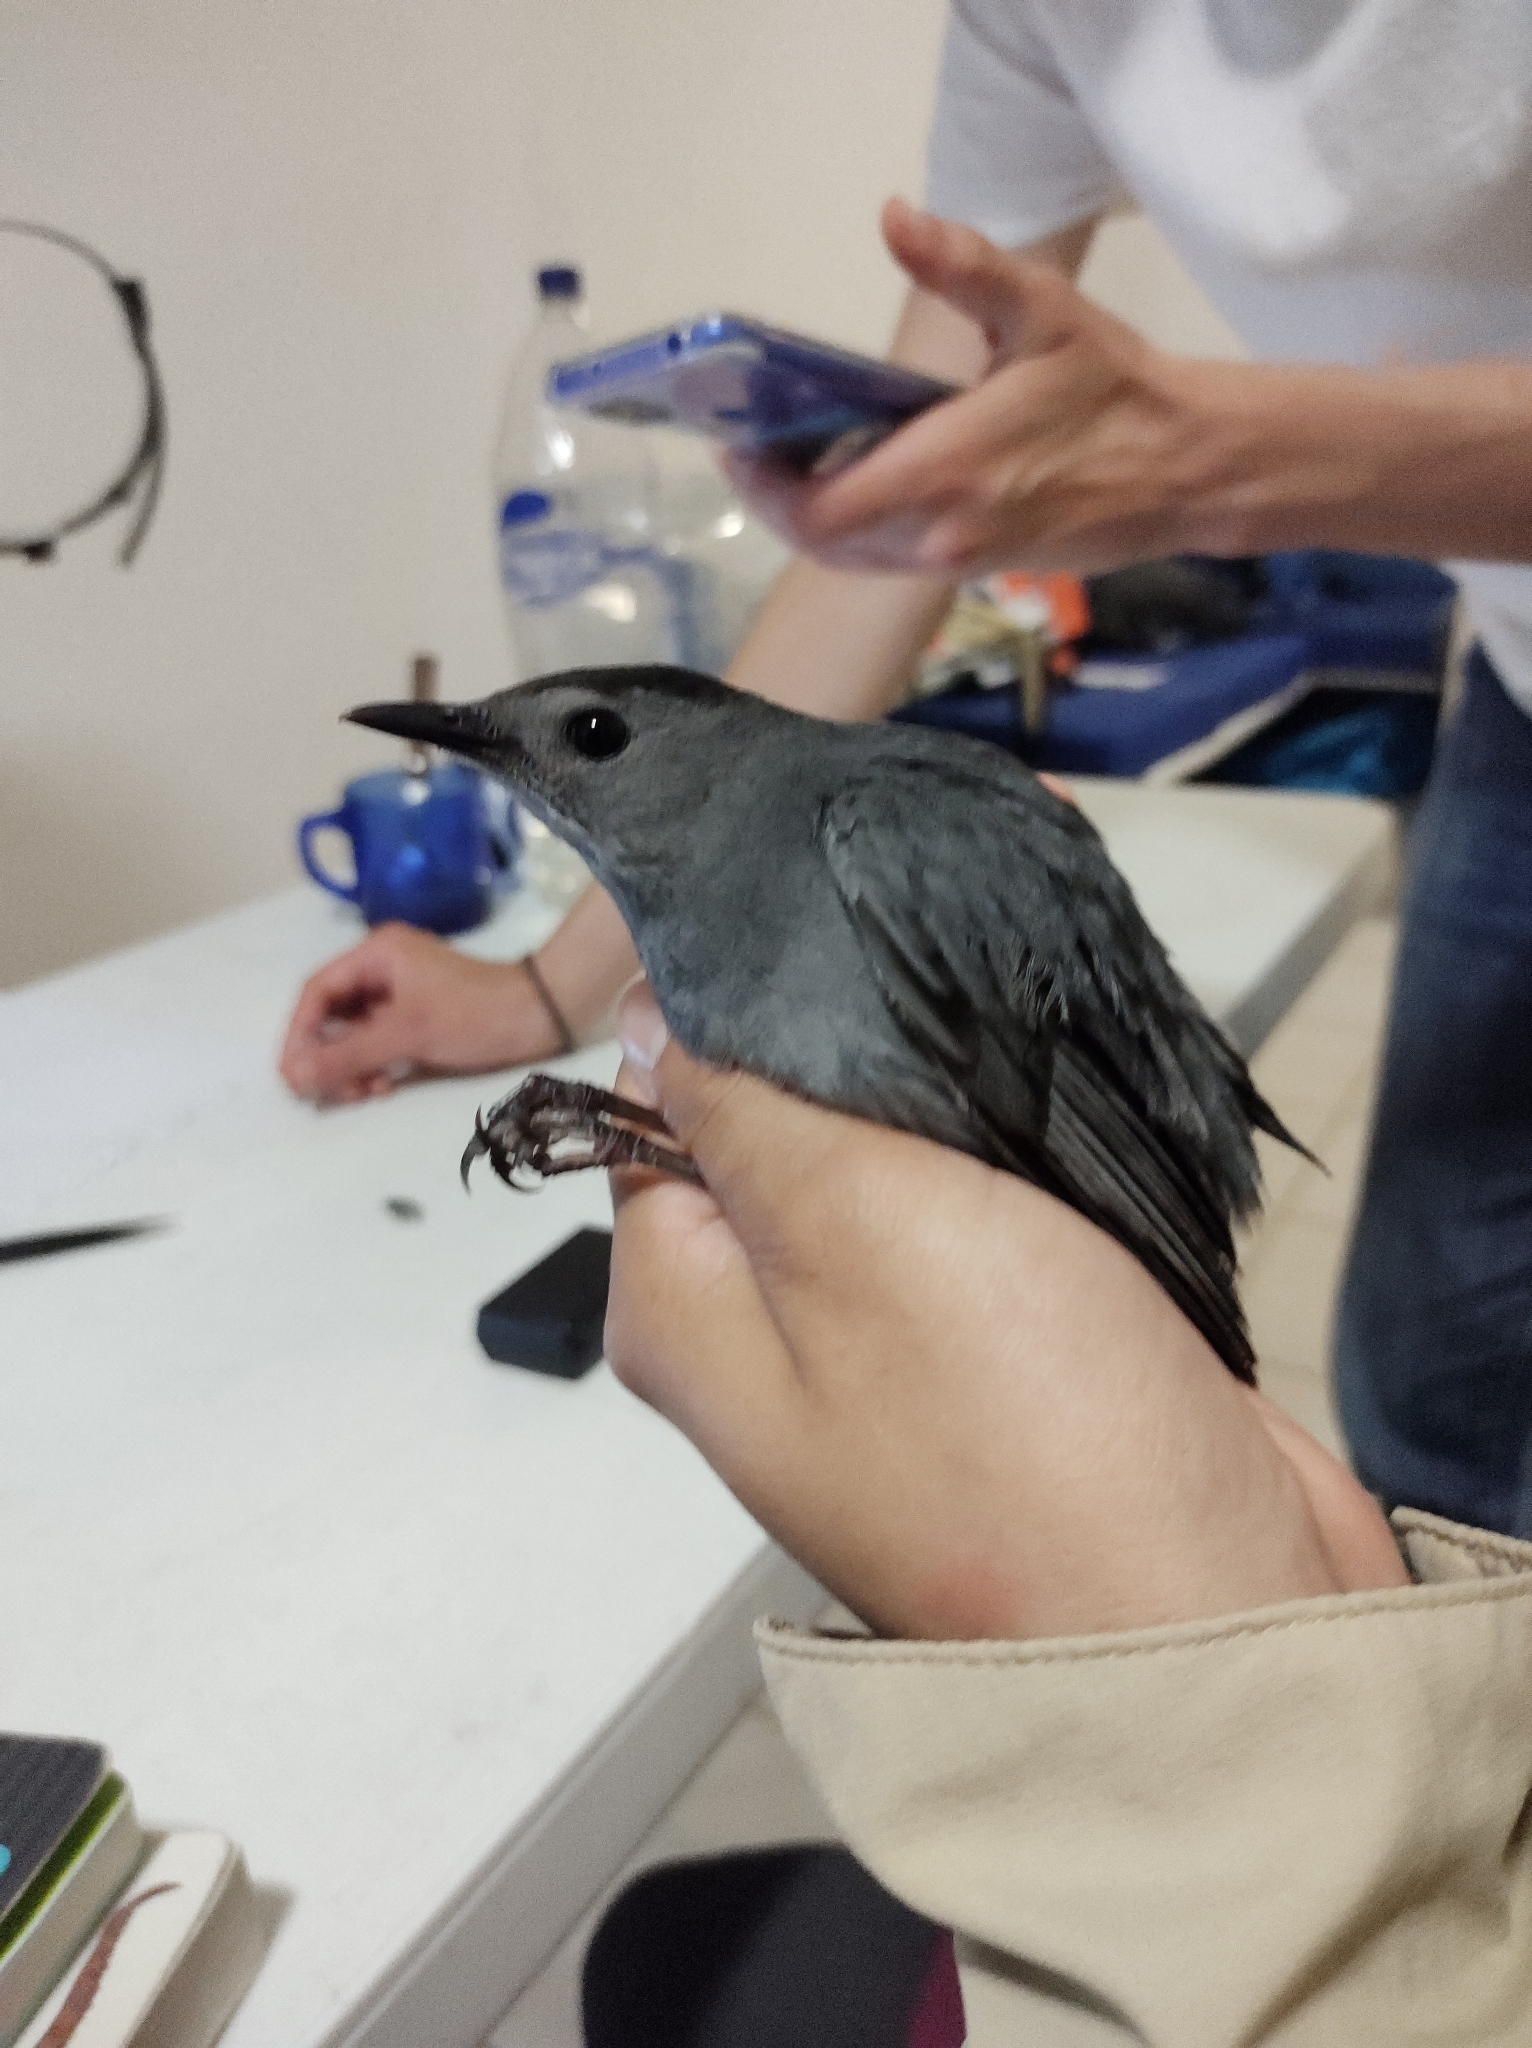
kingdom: Animalia
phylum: Chordata
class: Aves
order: Passeriformes
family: Mimidae
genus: Dumetella
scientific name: Dumetella carolinensis
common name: Gray catbird
